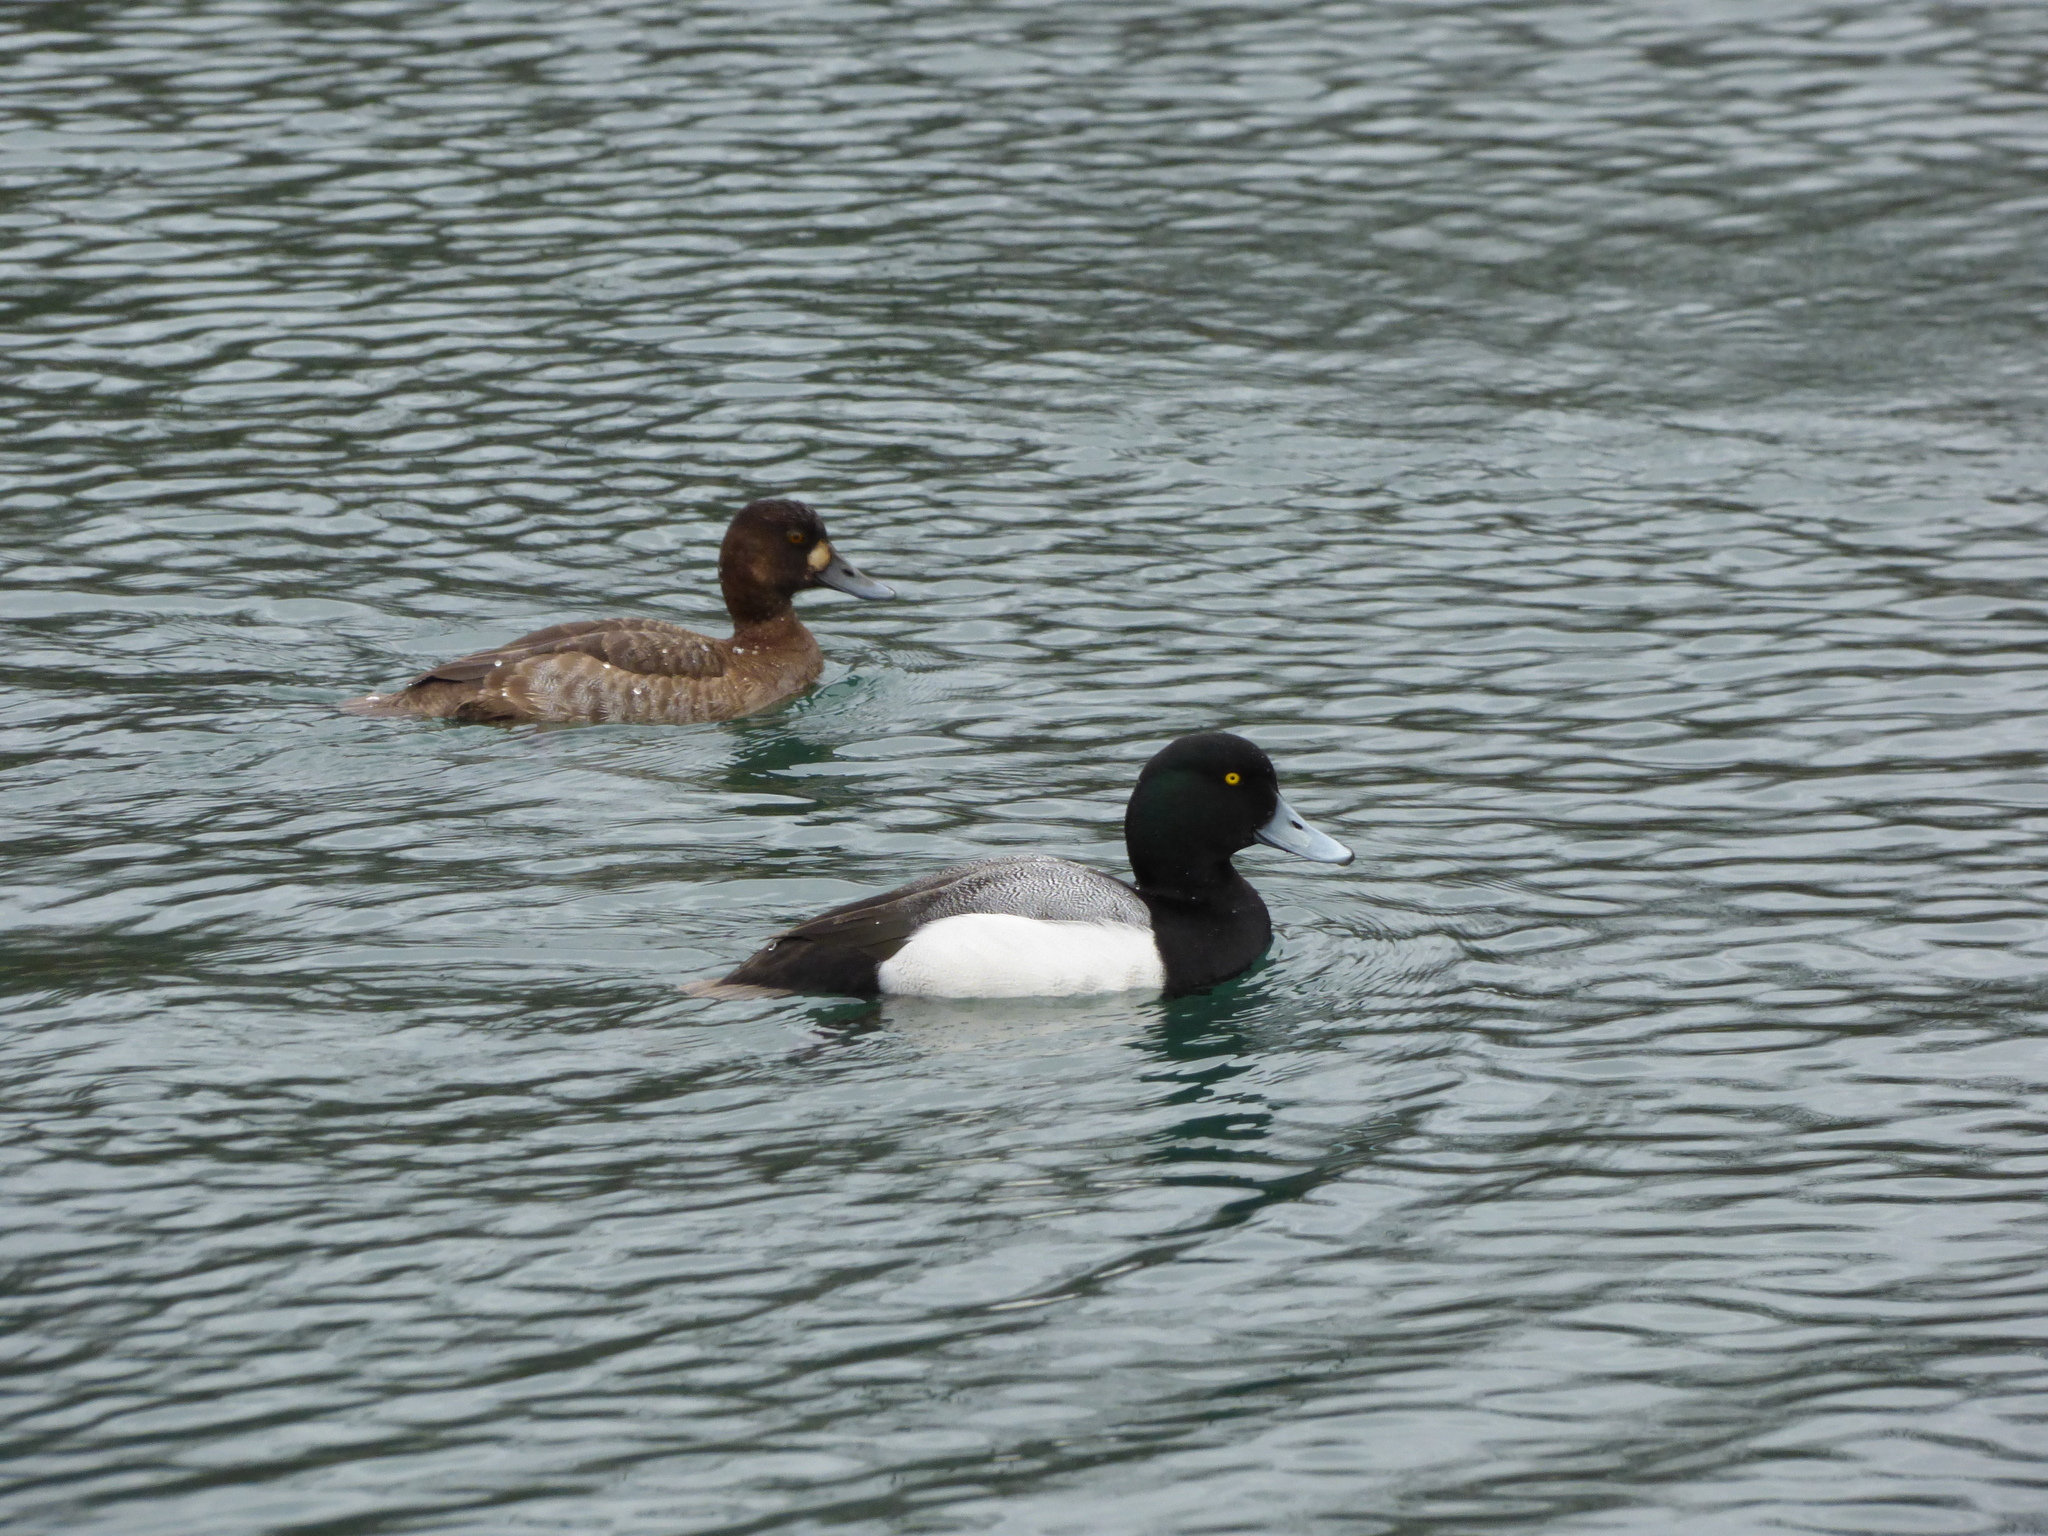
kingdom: Animalia
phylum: Chordata
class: Aves
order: Anseriformes
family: Anatidae
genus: Aythya
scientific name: Aythya marila
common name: Greater scaup
